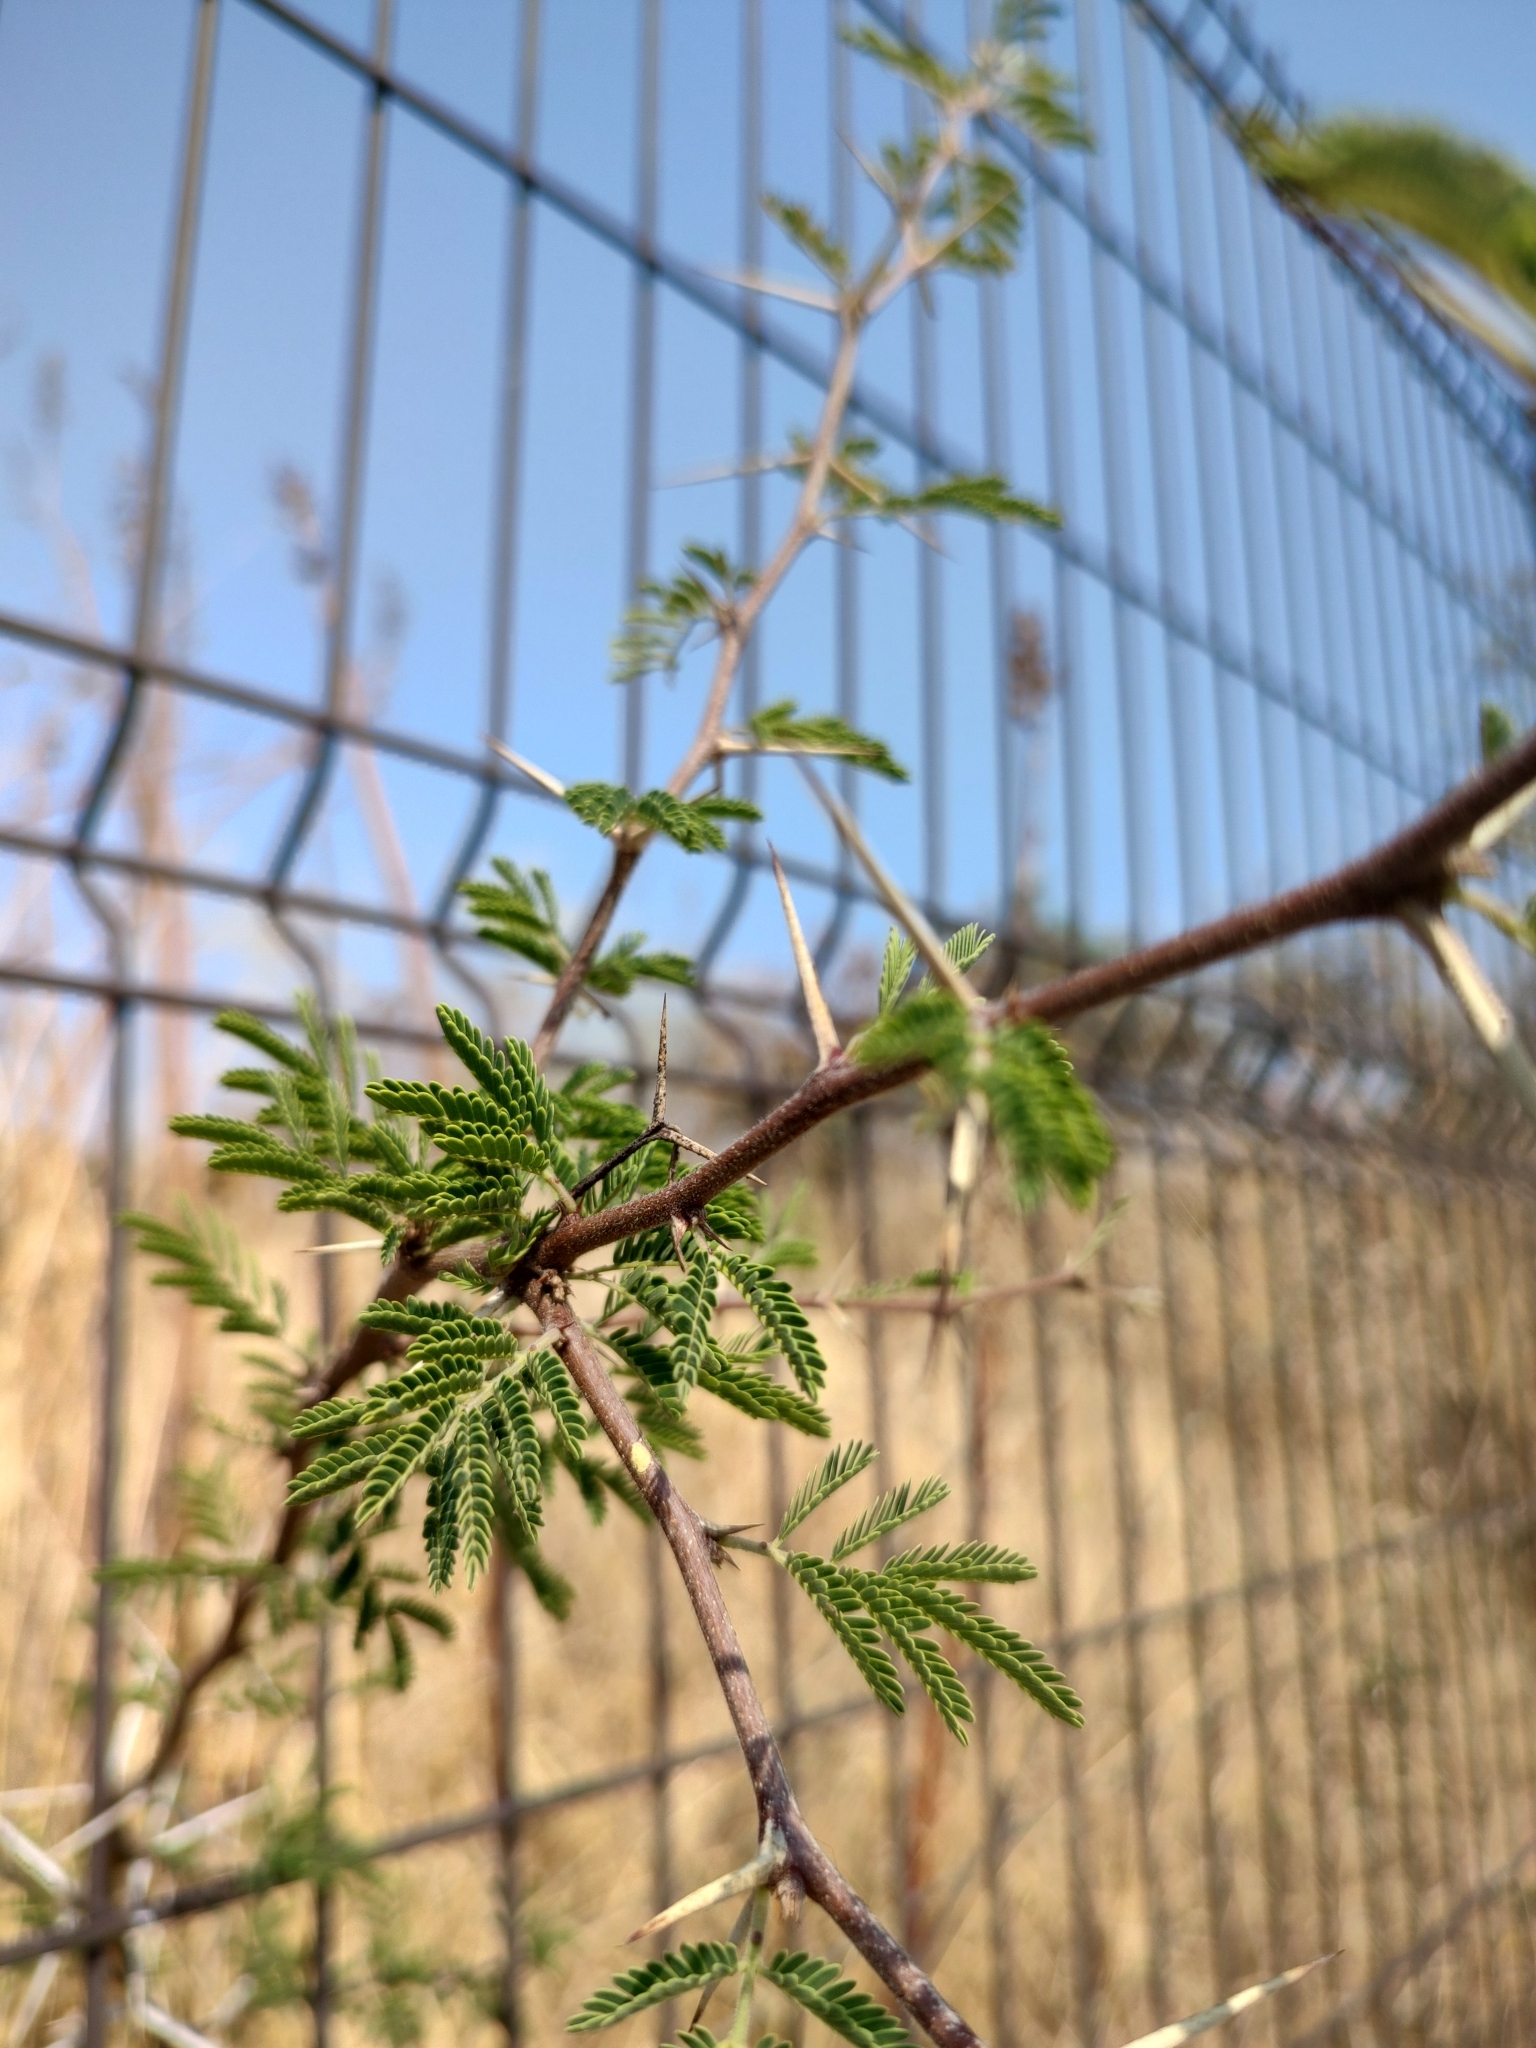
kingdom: Plantae
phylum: Tracheophyta
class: Magnoliopsida
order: Fabales
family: Fabaceae
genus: Vachellia
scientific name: Vachellia farnesiana
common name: Sweet acacia
